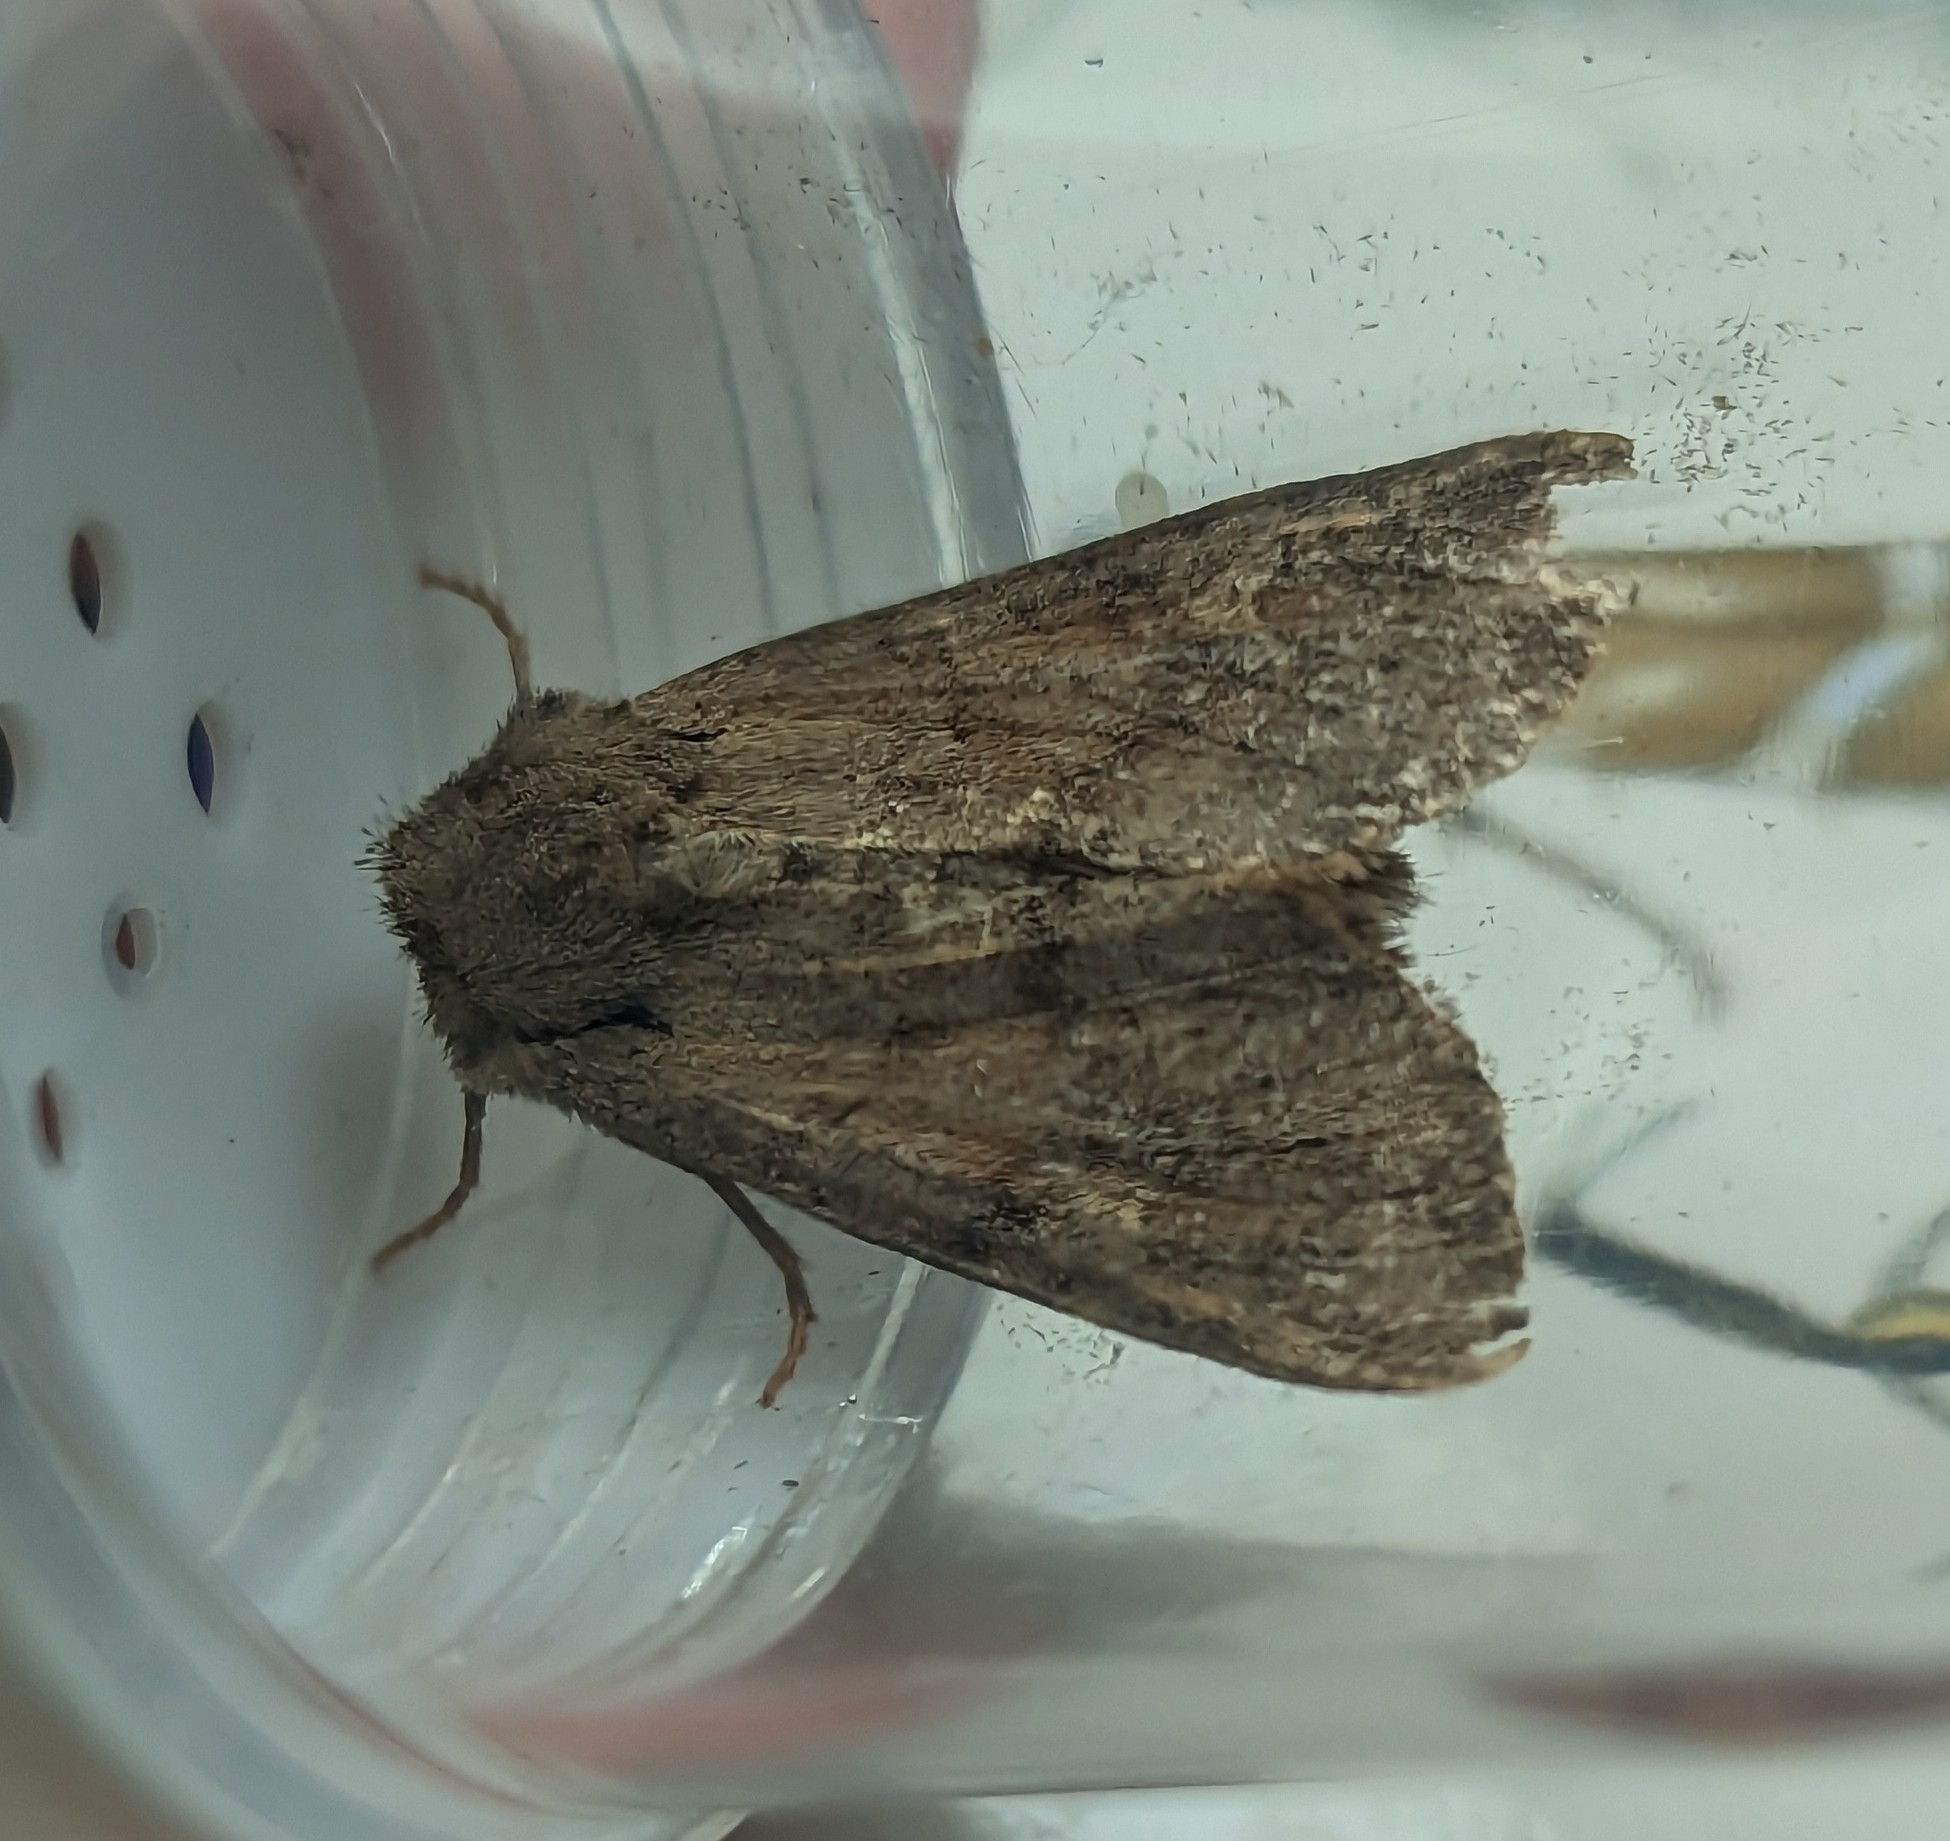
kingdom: Animalia
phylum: Arthropoda
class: Insecta
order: Lepidoptera
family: Noctuidae
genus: Apamea
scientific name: Apamea sordens
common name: Rustic shoulder-knot
